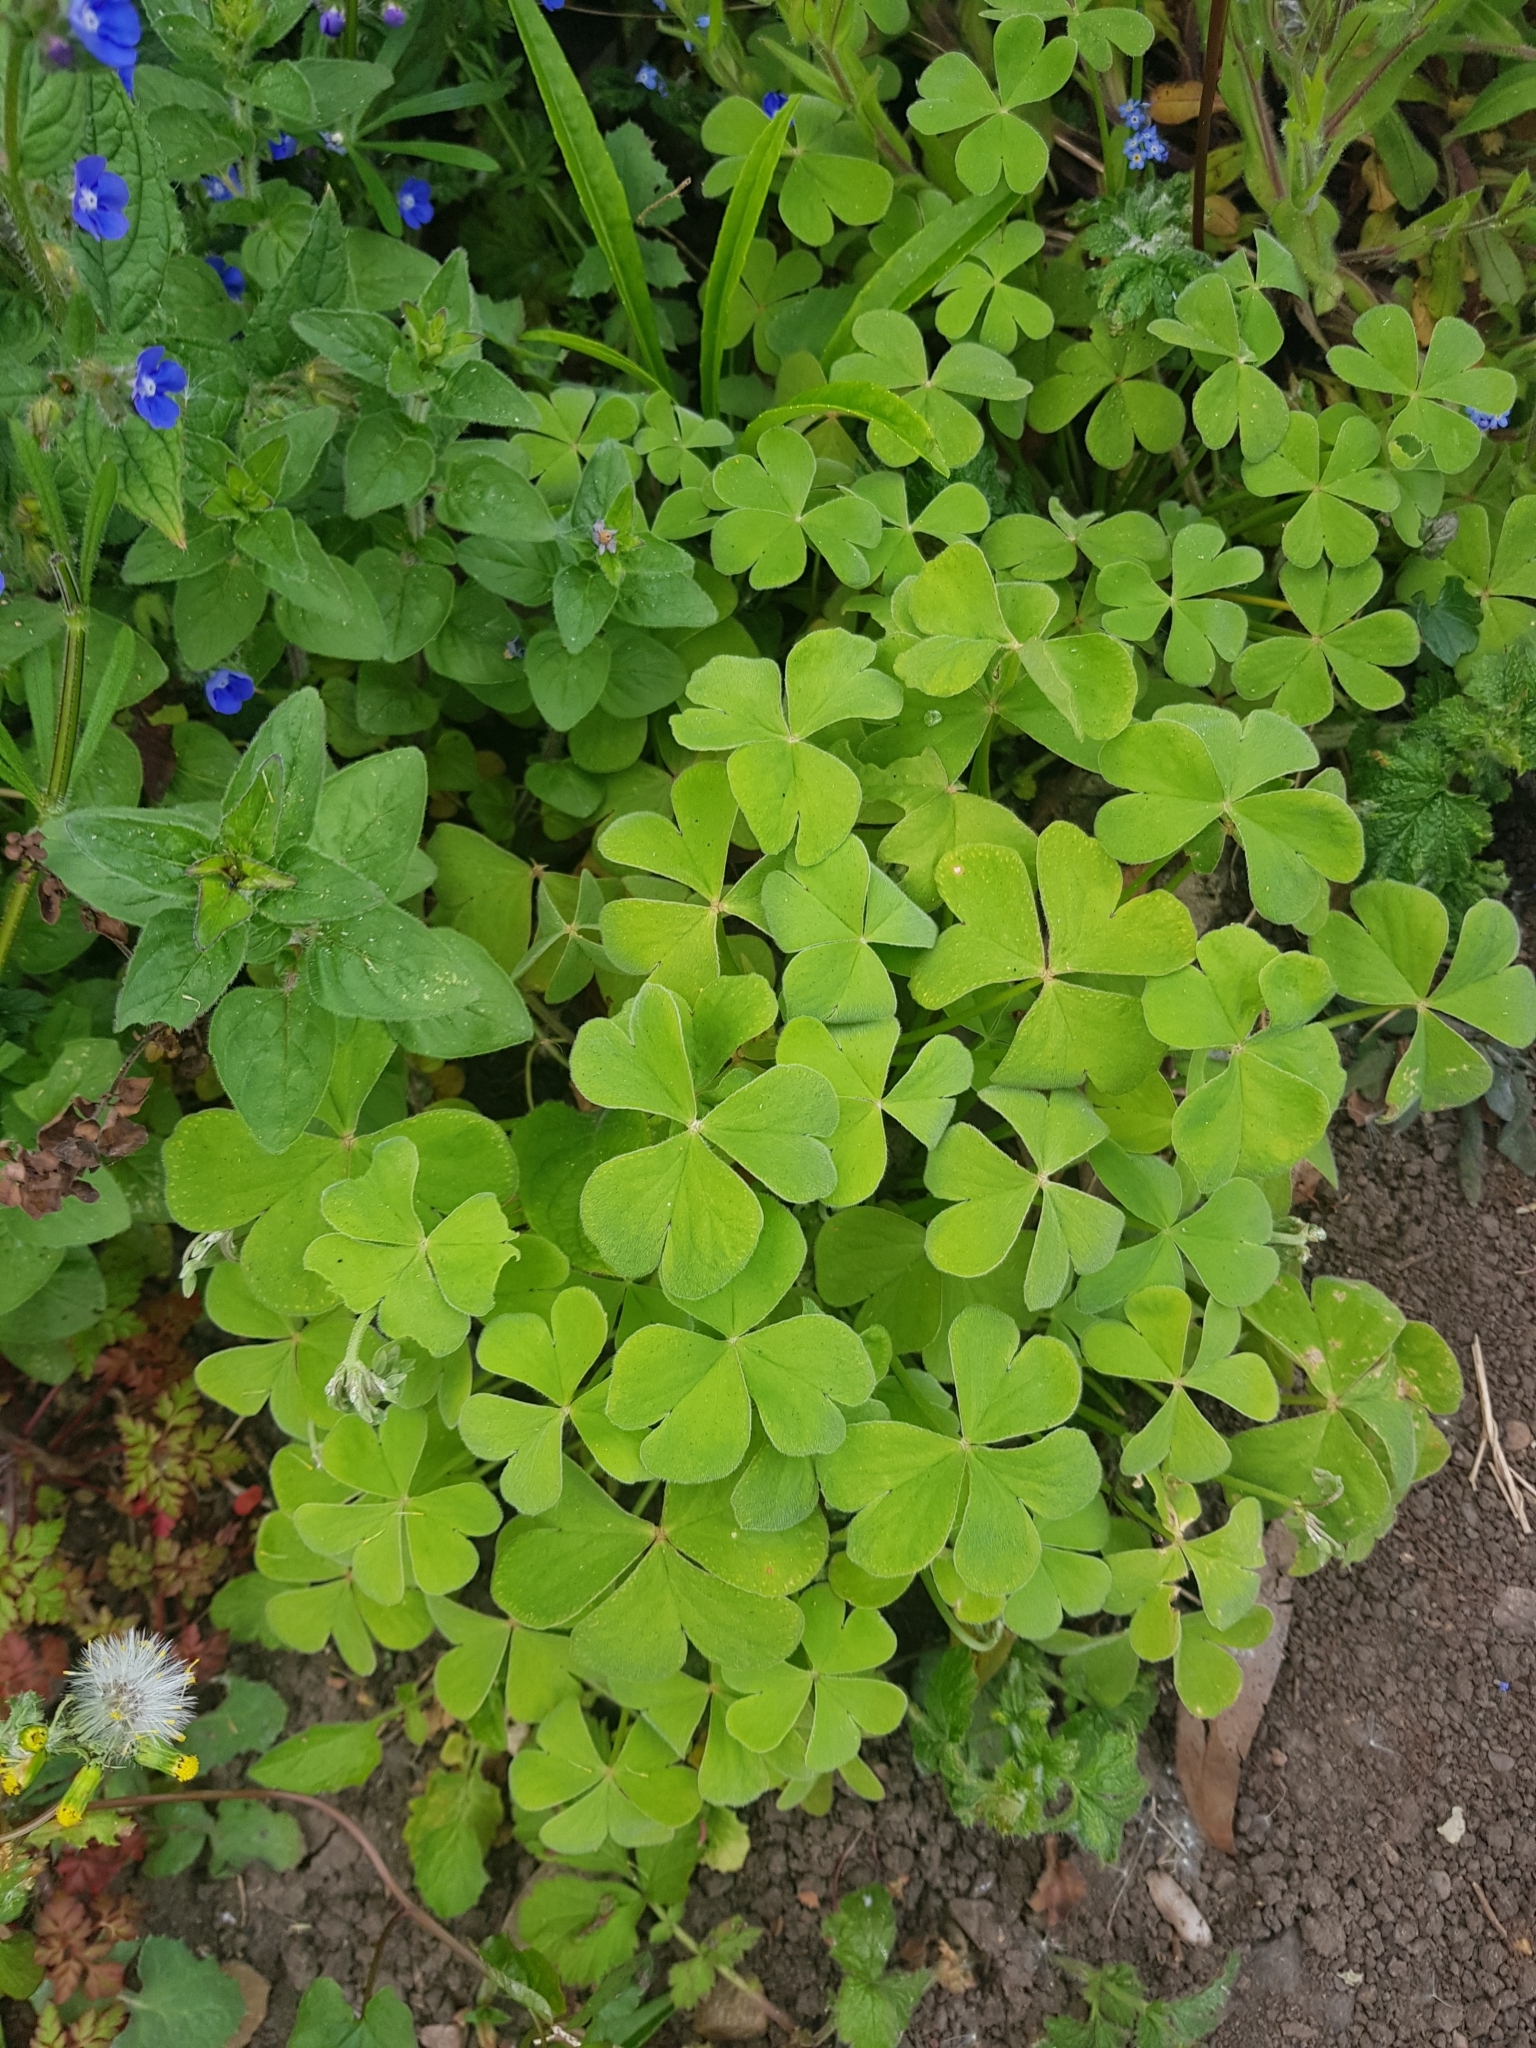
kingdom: Plantae
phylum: Tracheophyta
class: Magnoliopsida
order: Oxalidales
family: Oxalidaceae
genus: Oxalis
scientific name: Oxalis articulata
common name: Pink-sorrel
